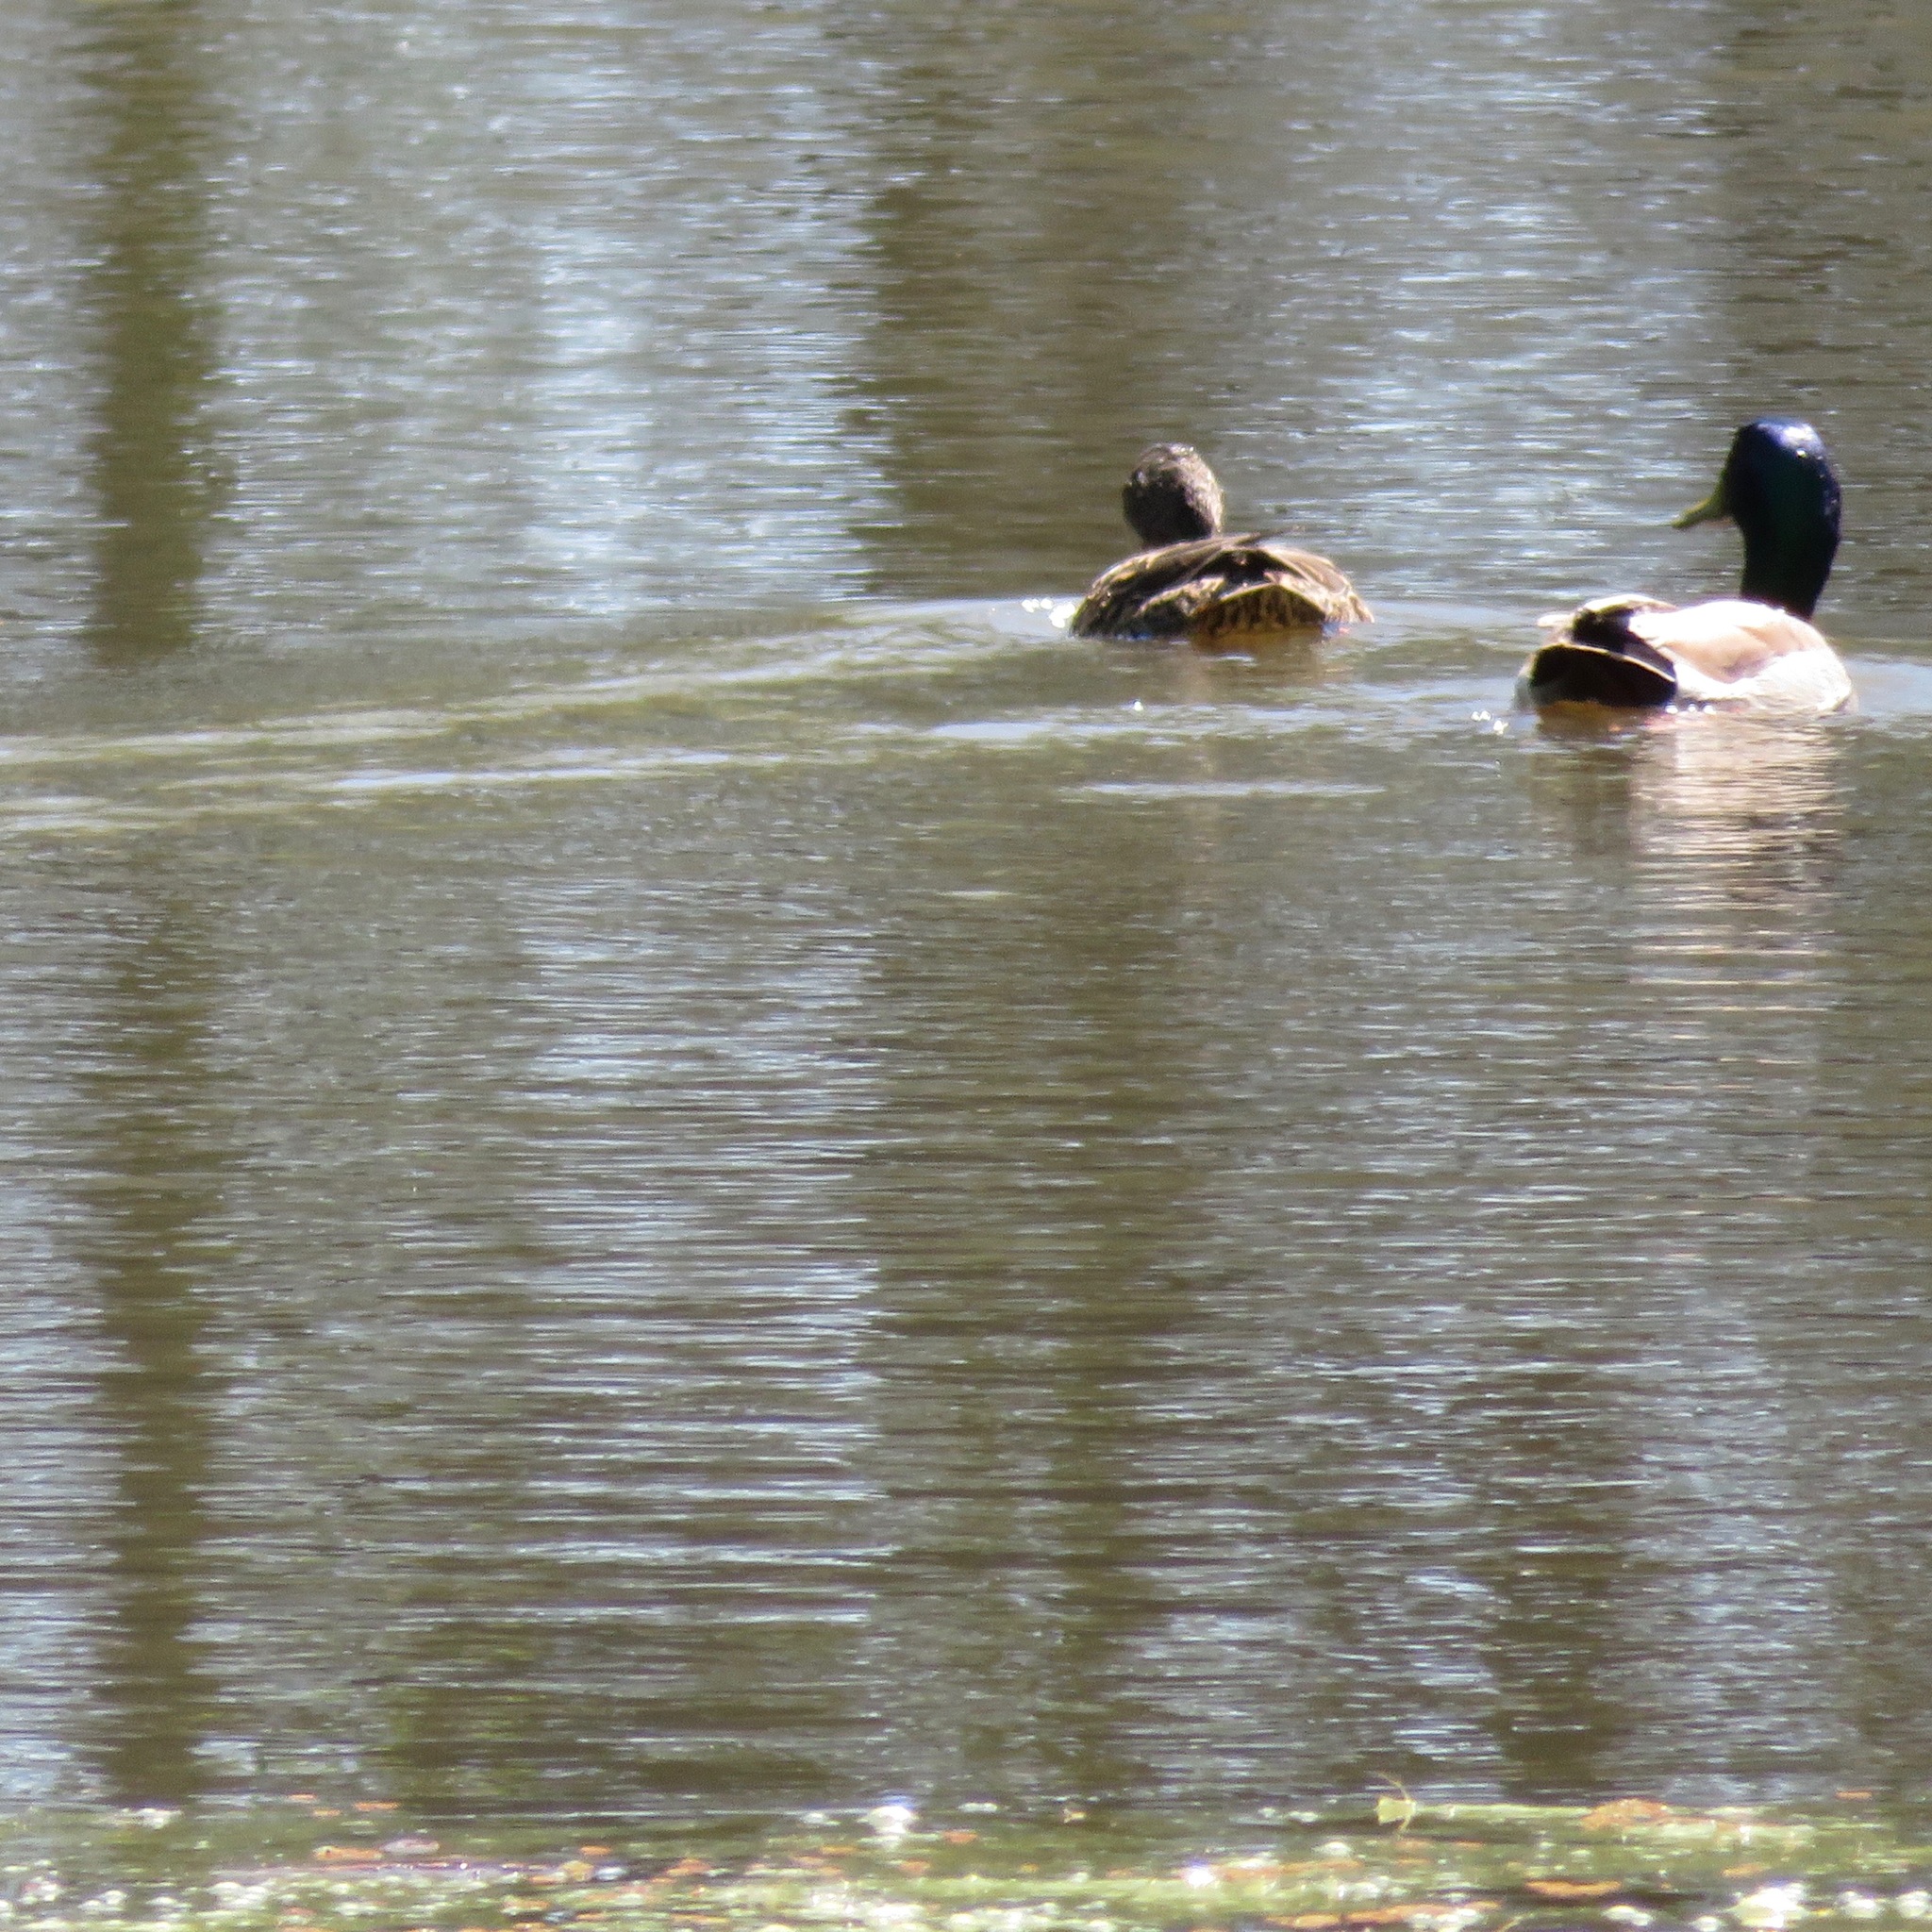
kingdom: Animalia
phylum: Chordata
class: Aves
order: Anseriformes
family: Anatidae
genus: Anas
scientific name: Anas platyrhynchos
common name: Mallard
